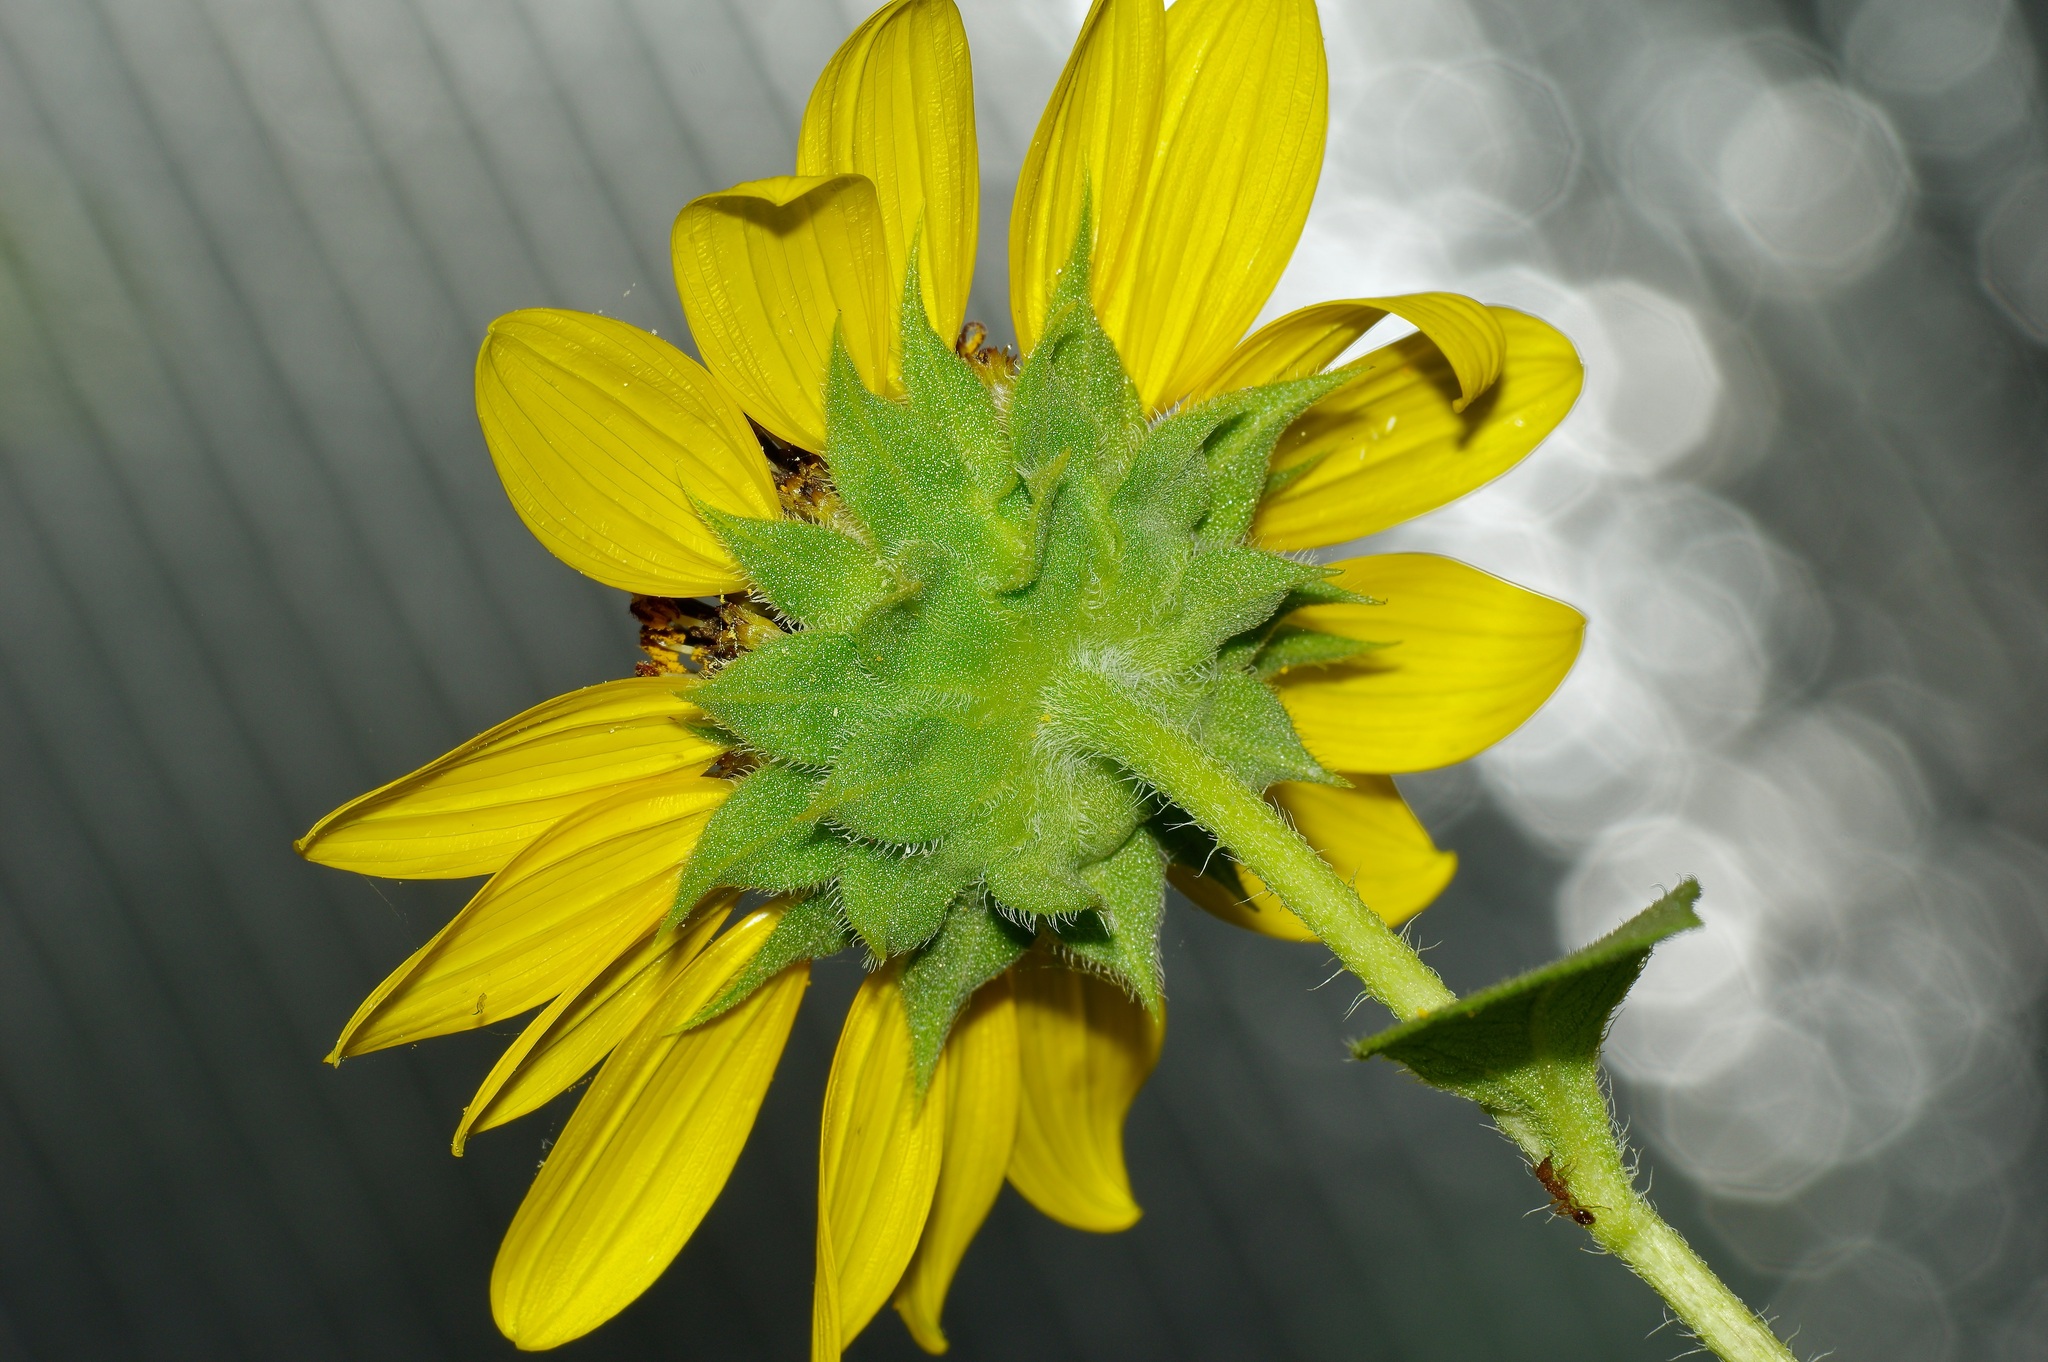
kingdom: Plantae
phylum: Tracheophyta
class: Magnoliopsida
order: Asterales
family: Asteraceae
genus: Helianthus
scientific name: Helianthus annuus
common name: Sunflower
